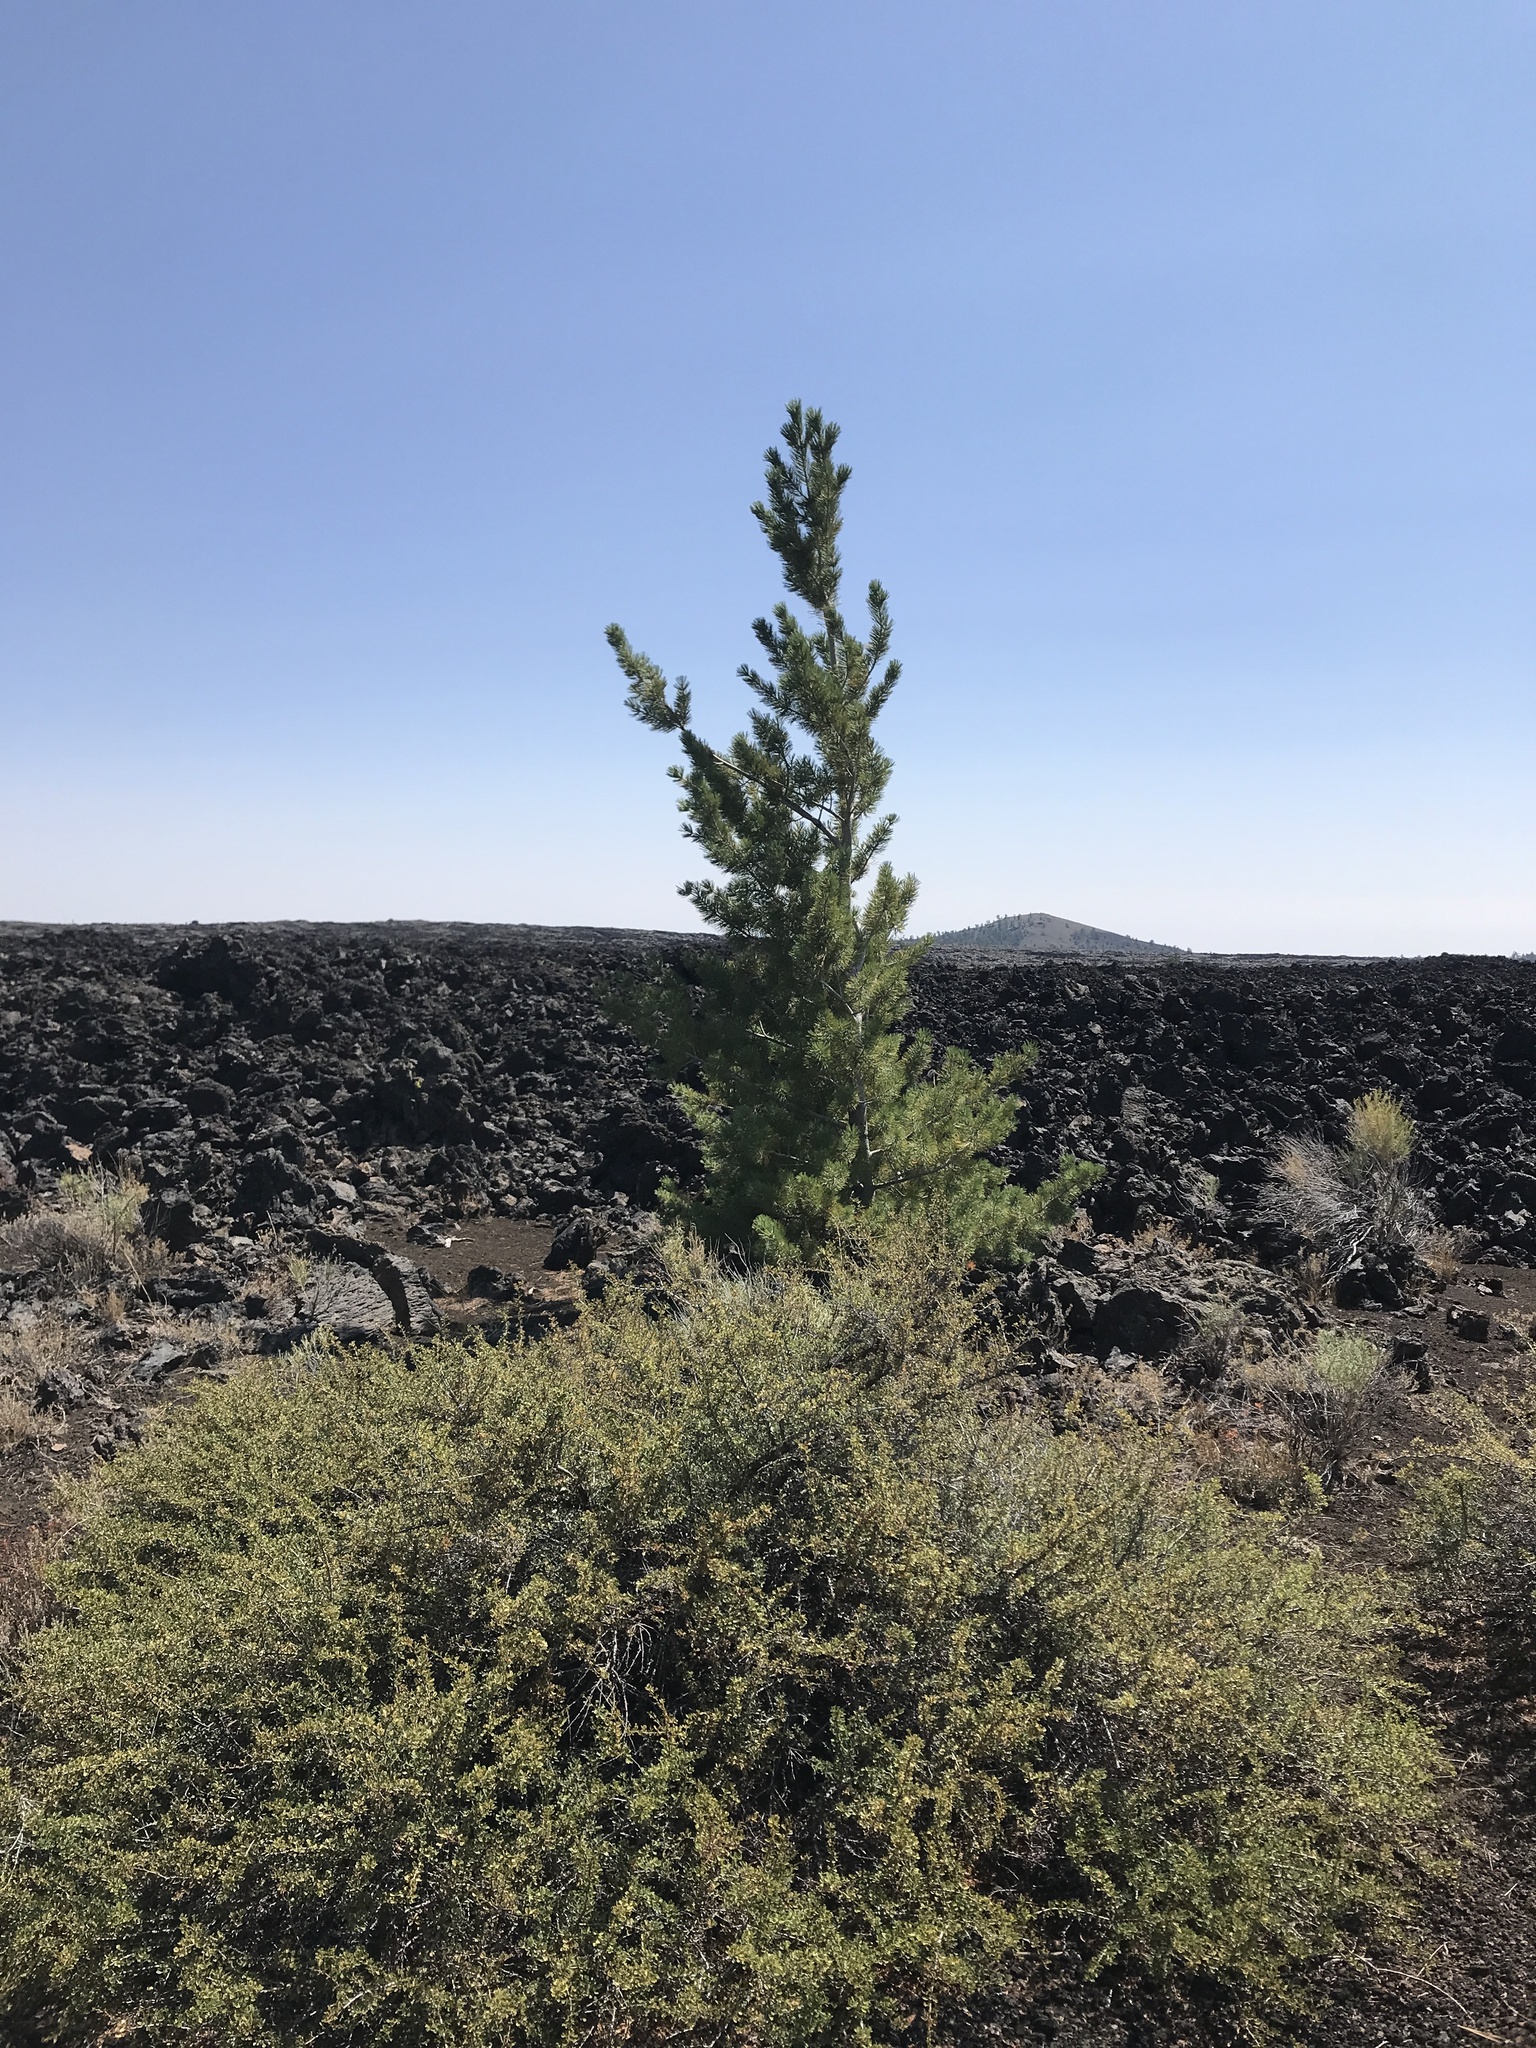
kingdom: Plantae
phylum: Tracheophyta
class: Pinopsida
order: Pinales
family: Pinaceae
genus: Pinus
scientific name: Pinus flexilis
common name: Limber pine
